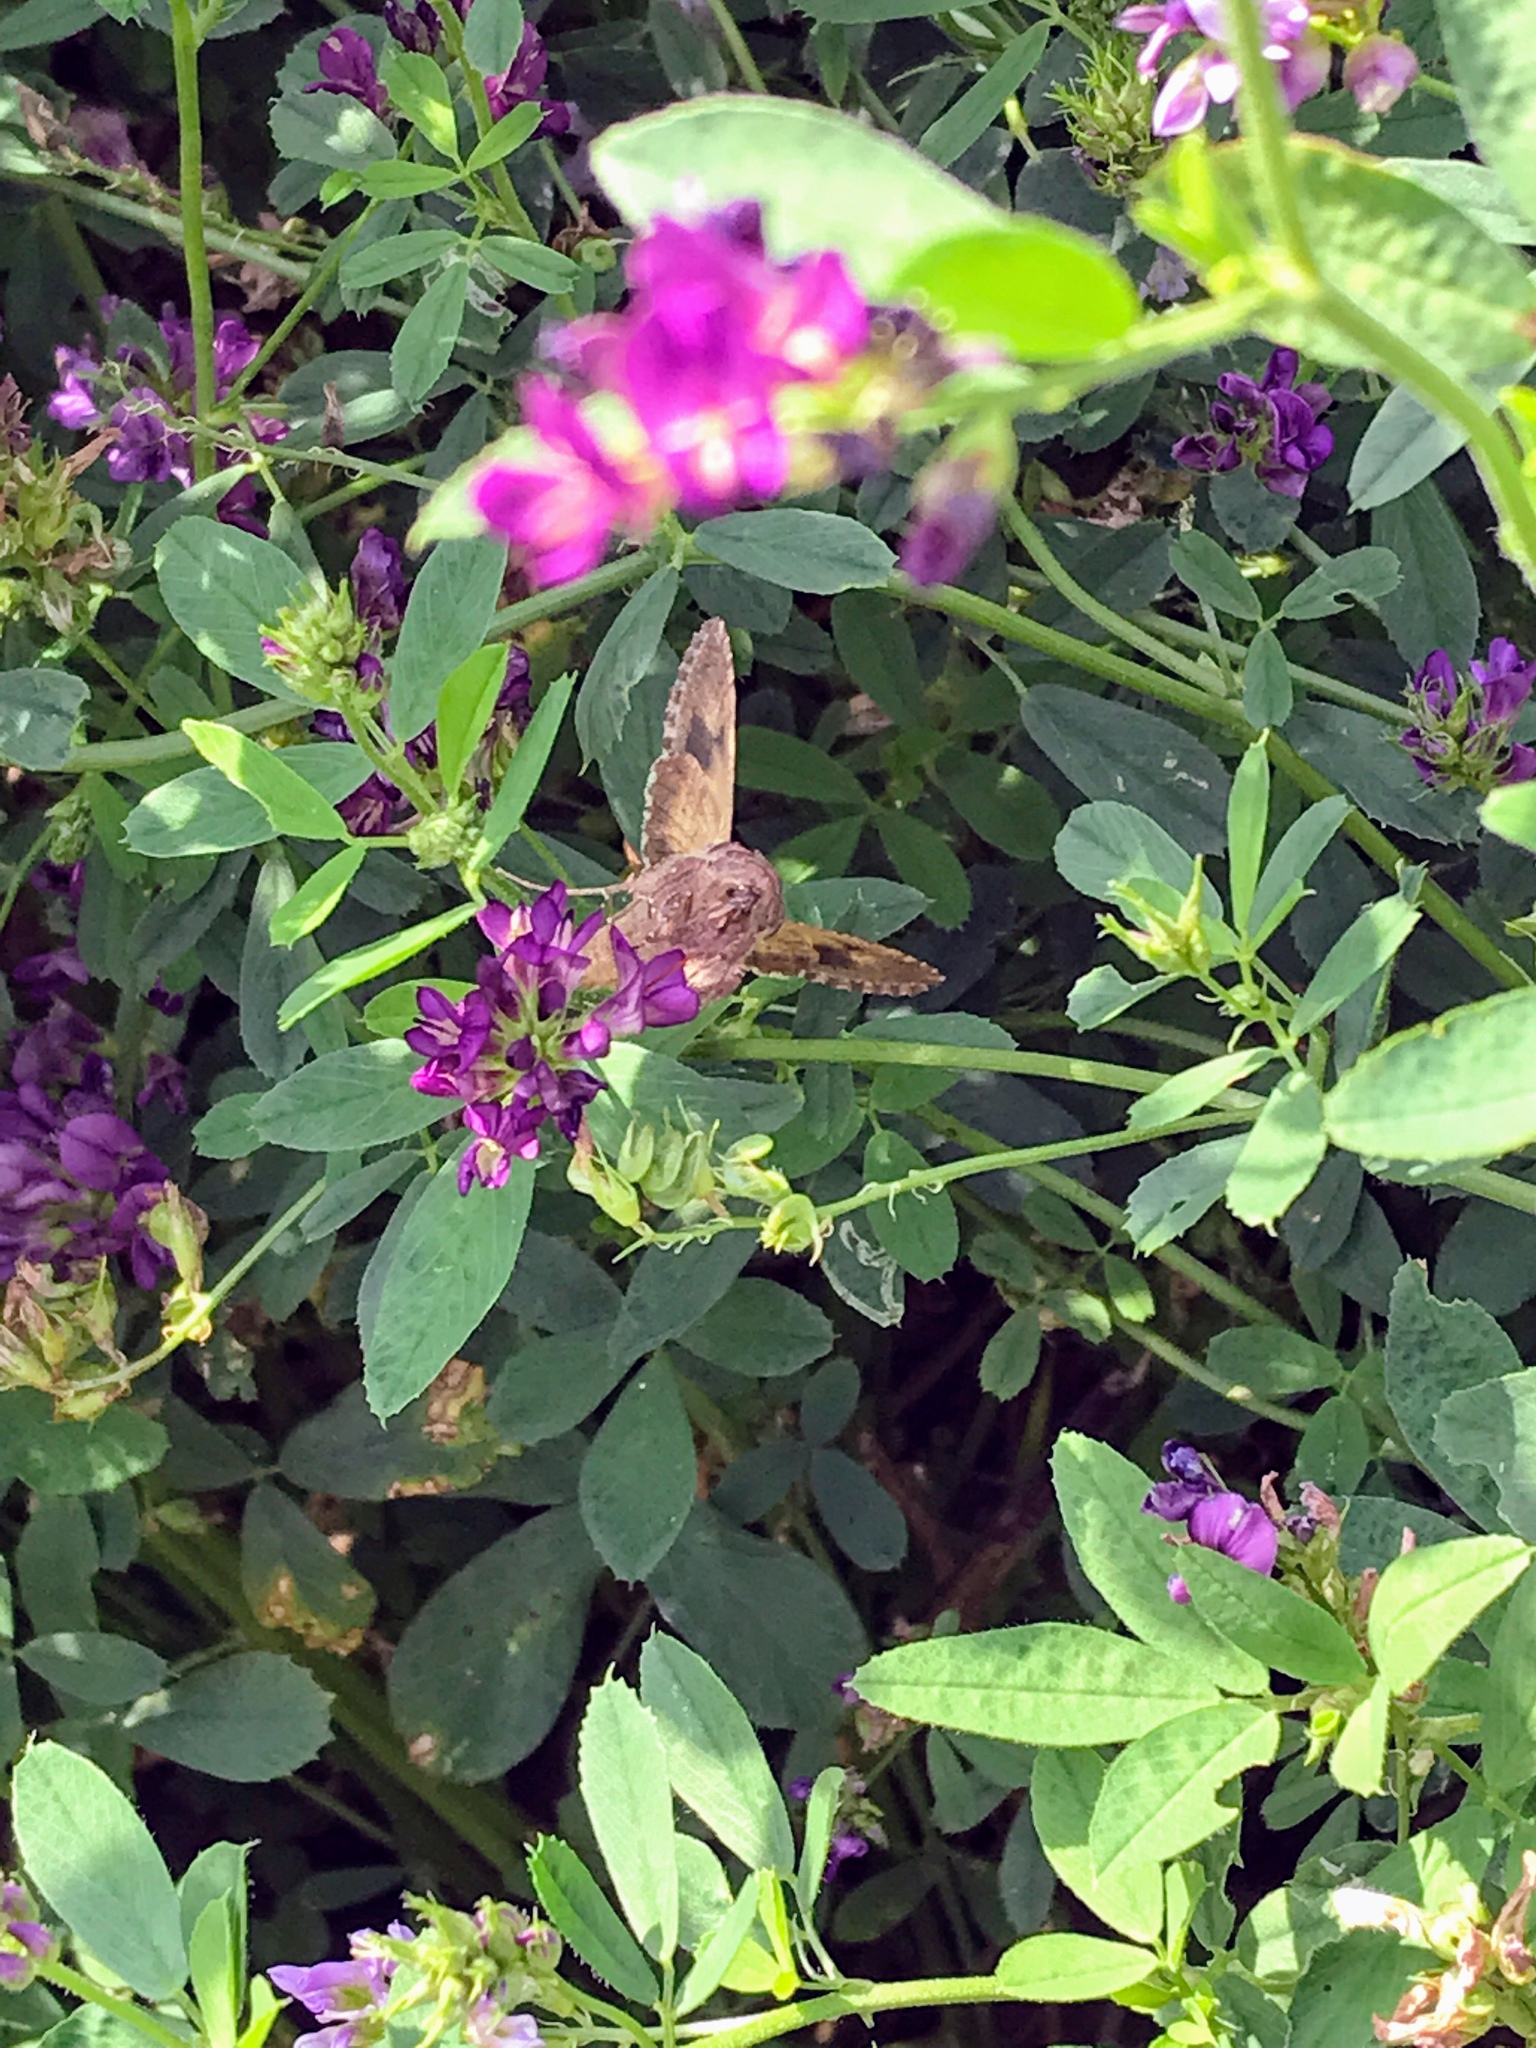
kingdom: Animalia
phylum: Arthropoda
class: Insecta
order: Lepidoptera
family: Noctuidae
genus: Autographa
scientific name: Autographa gamma
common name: Silver y
